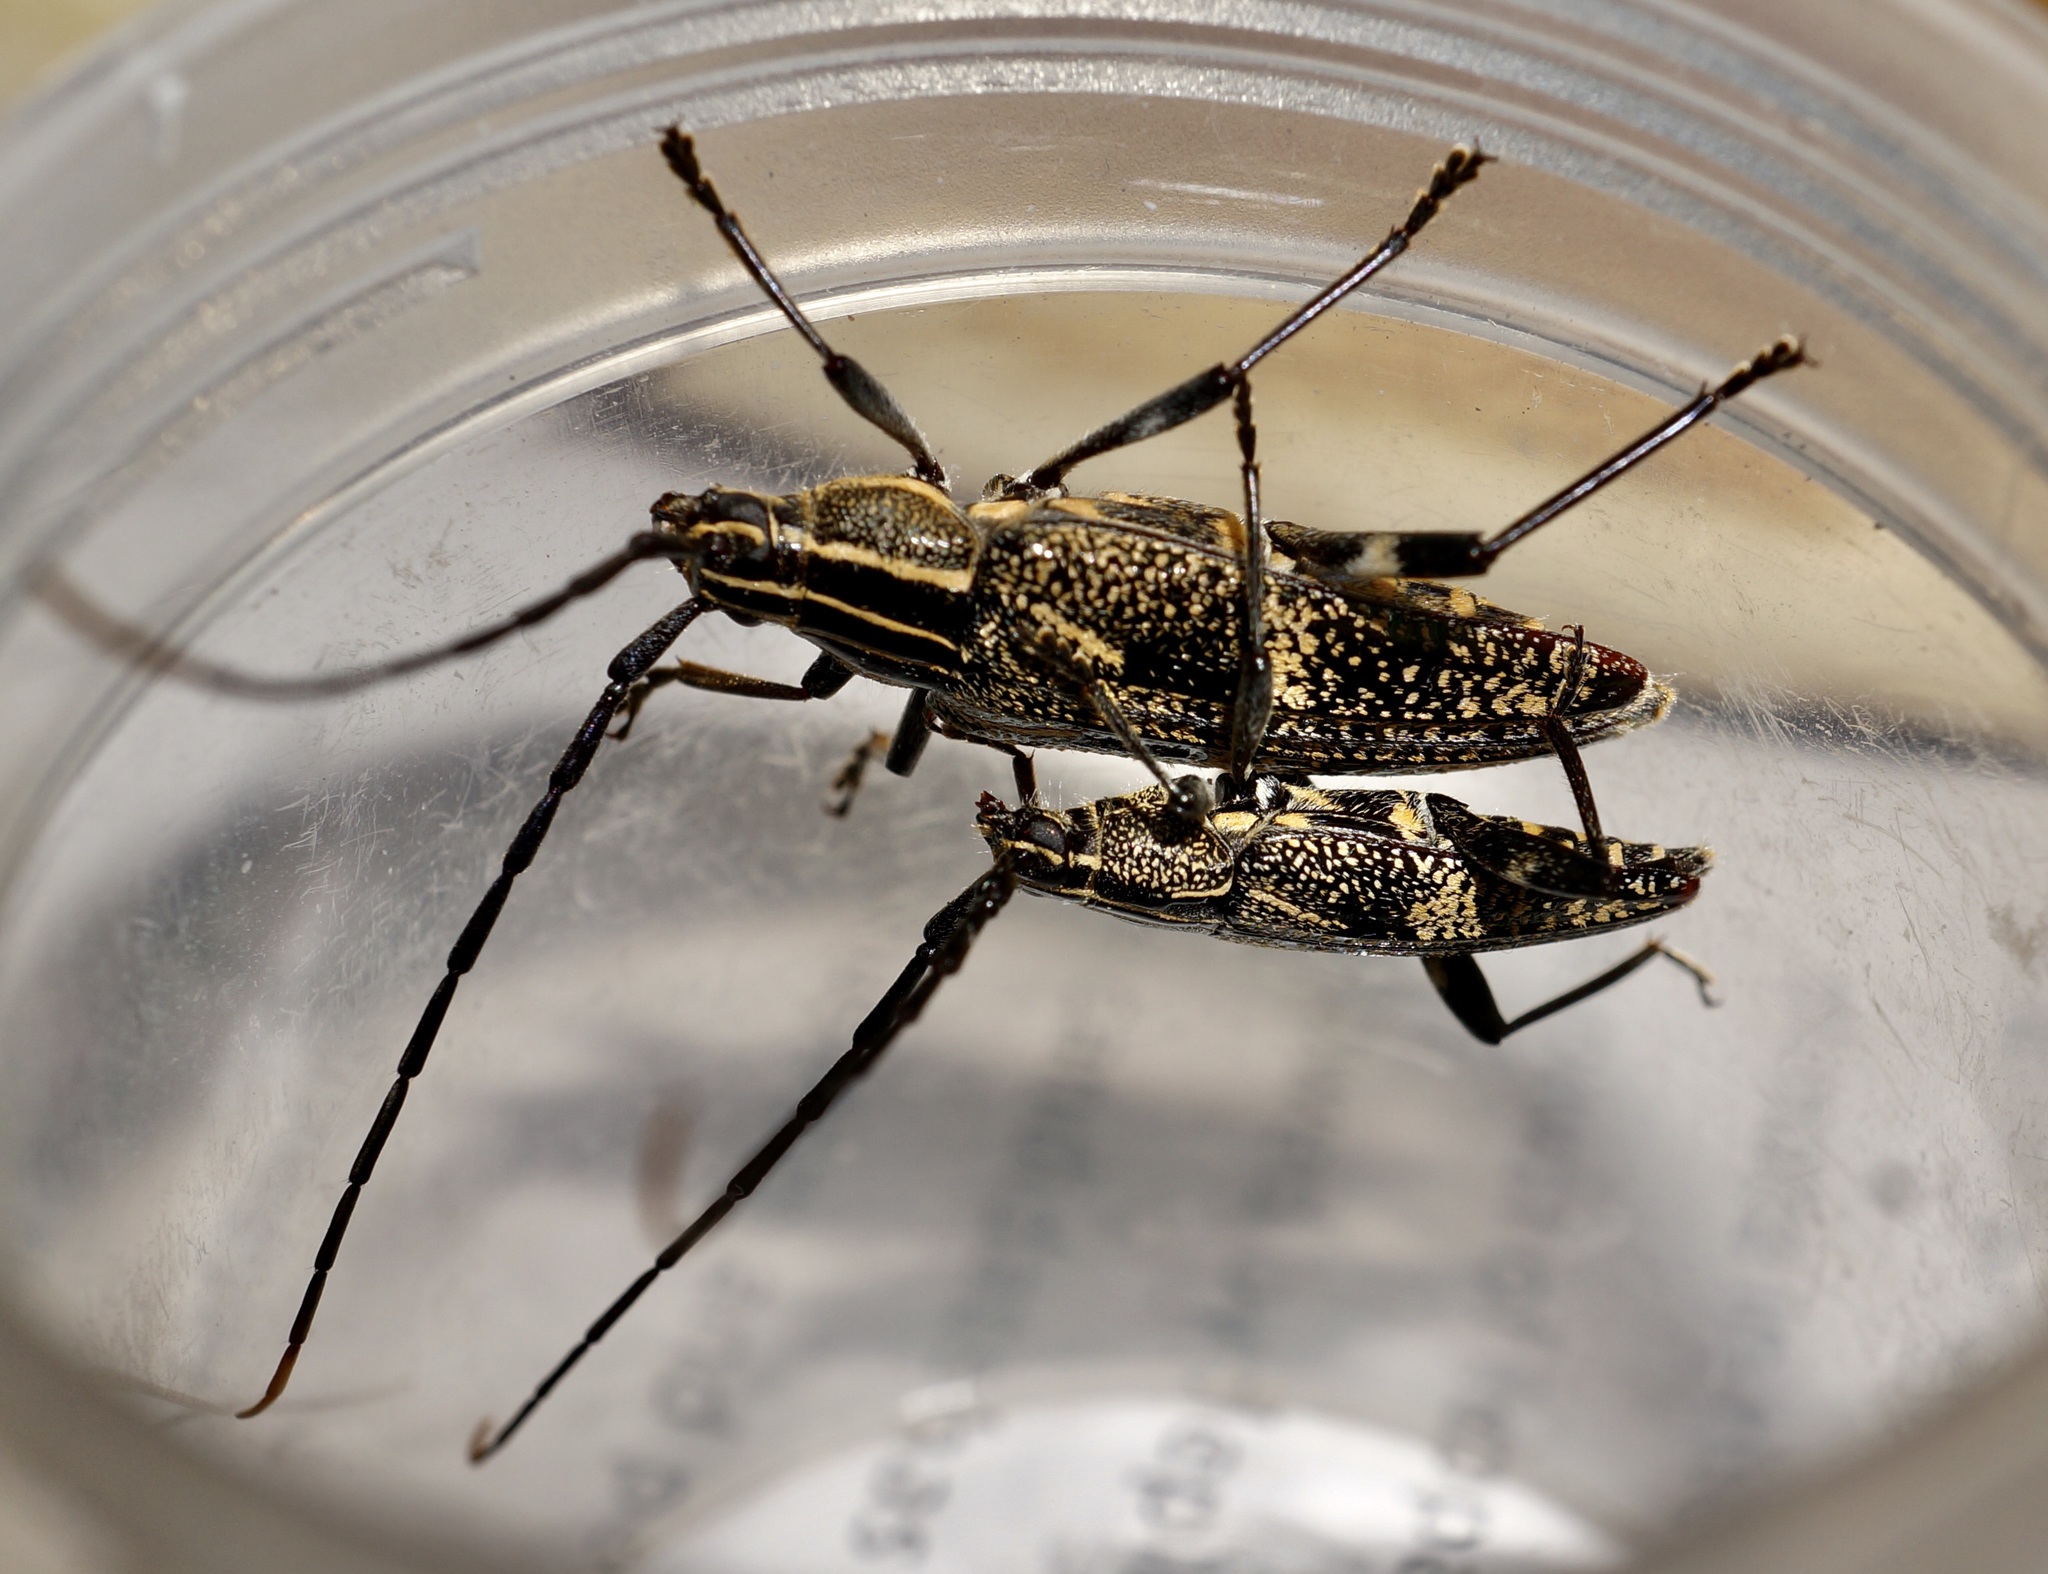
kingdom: Animalia
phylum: Arthropoda
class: Insecta
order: Coleoptera
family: Cerambycidae
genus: Coptomma
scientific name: Coptomma variegatum
